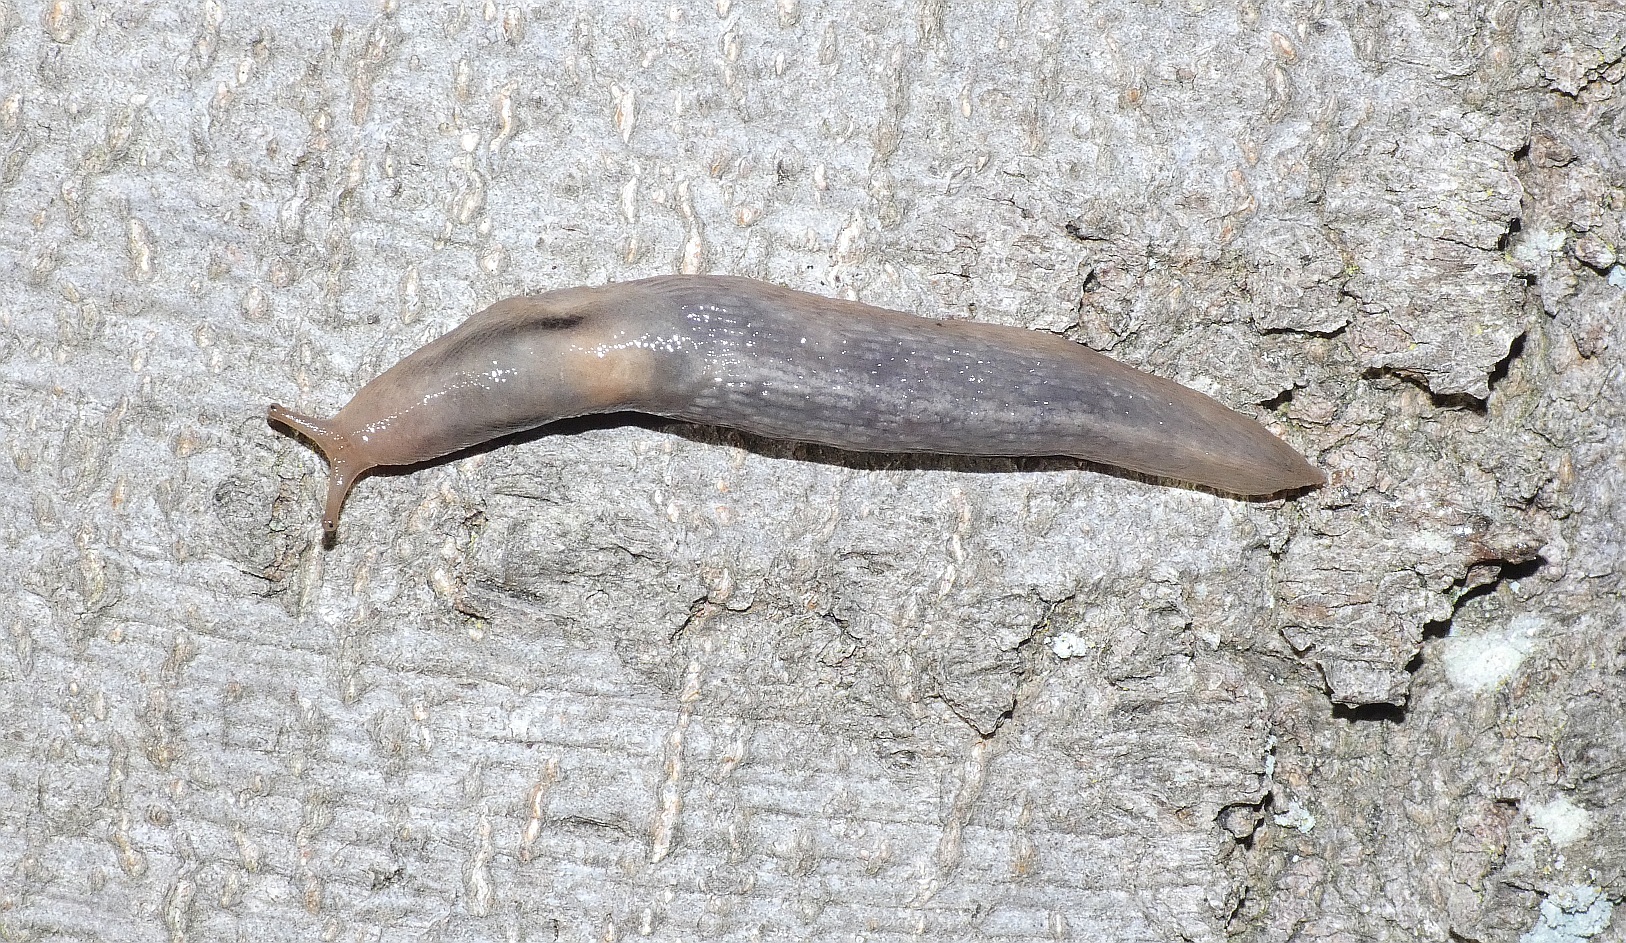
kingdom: Animalia
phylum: Mollusca
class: Gastropoda
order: Stylommatophora
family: Limacidae
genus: Lehmannia
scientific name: Lehmannia marginata
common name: Tree slug
